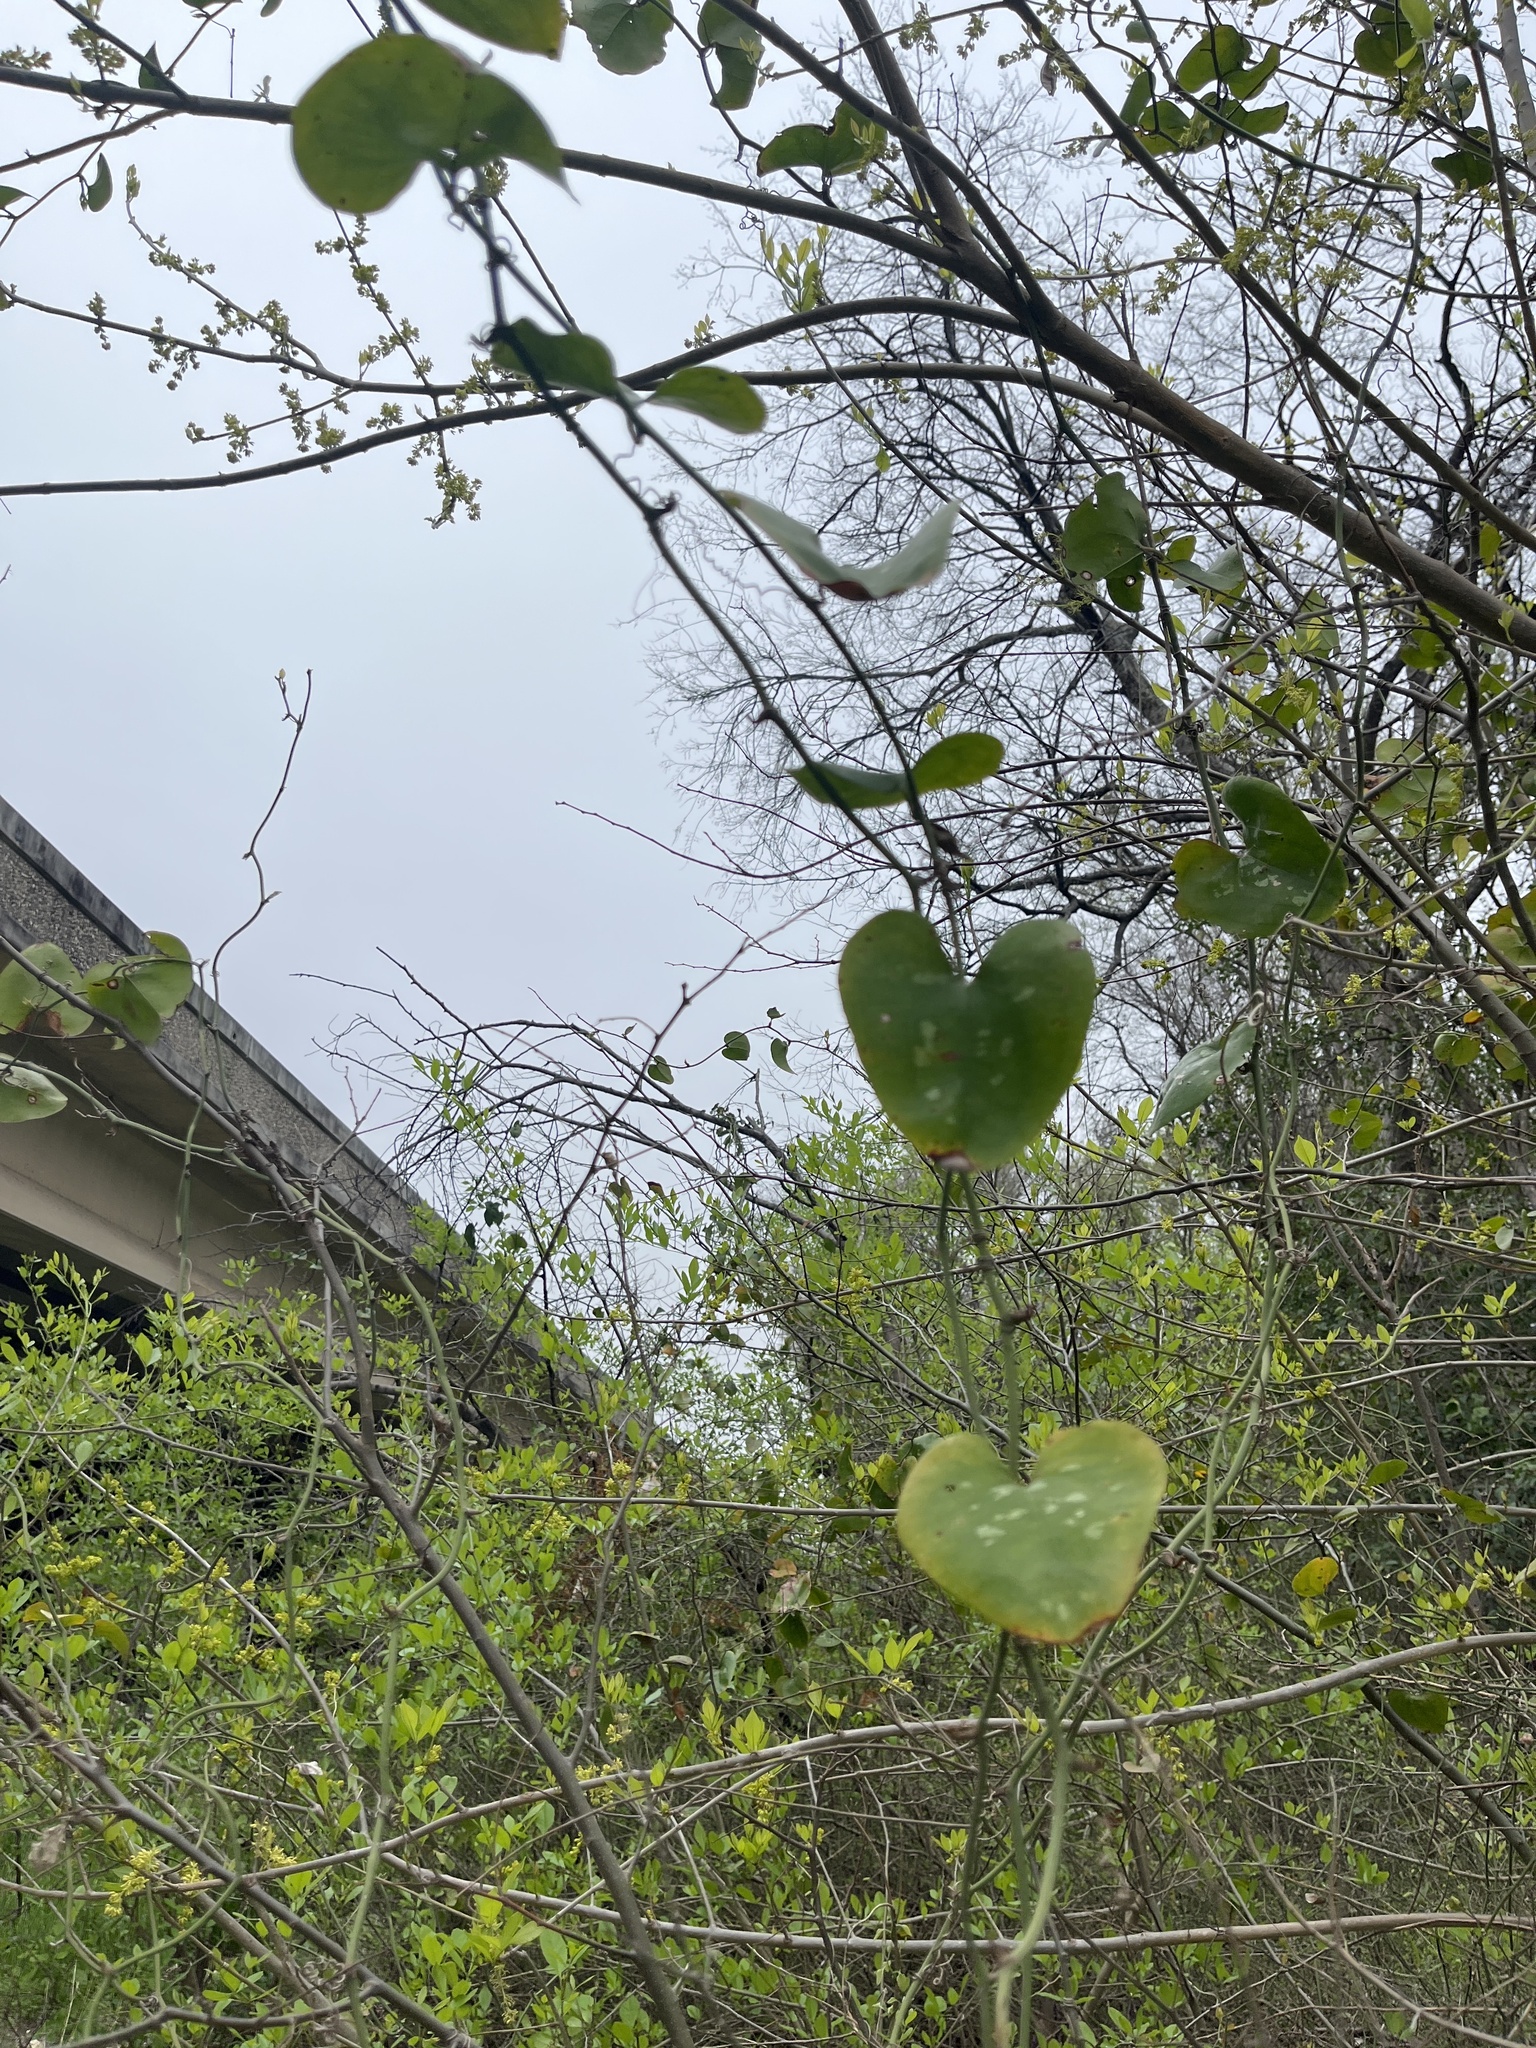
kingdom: Plantae
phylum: Tracheophyta
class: Liliopsida
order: Liliales
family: Smilacaceae
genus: Smilax
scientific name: Smilax bona-nox
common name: Catbrier
